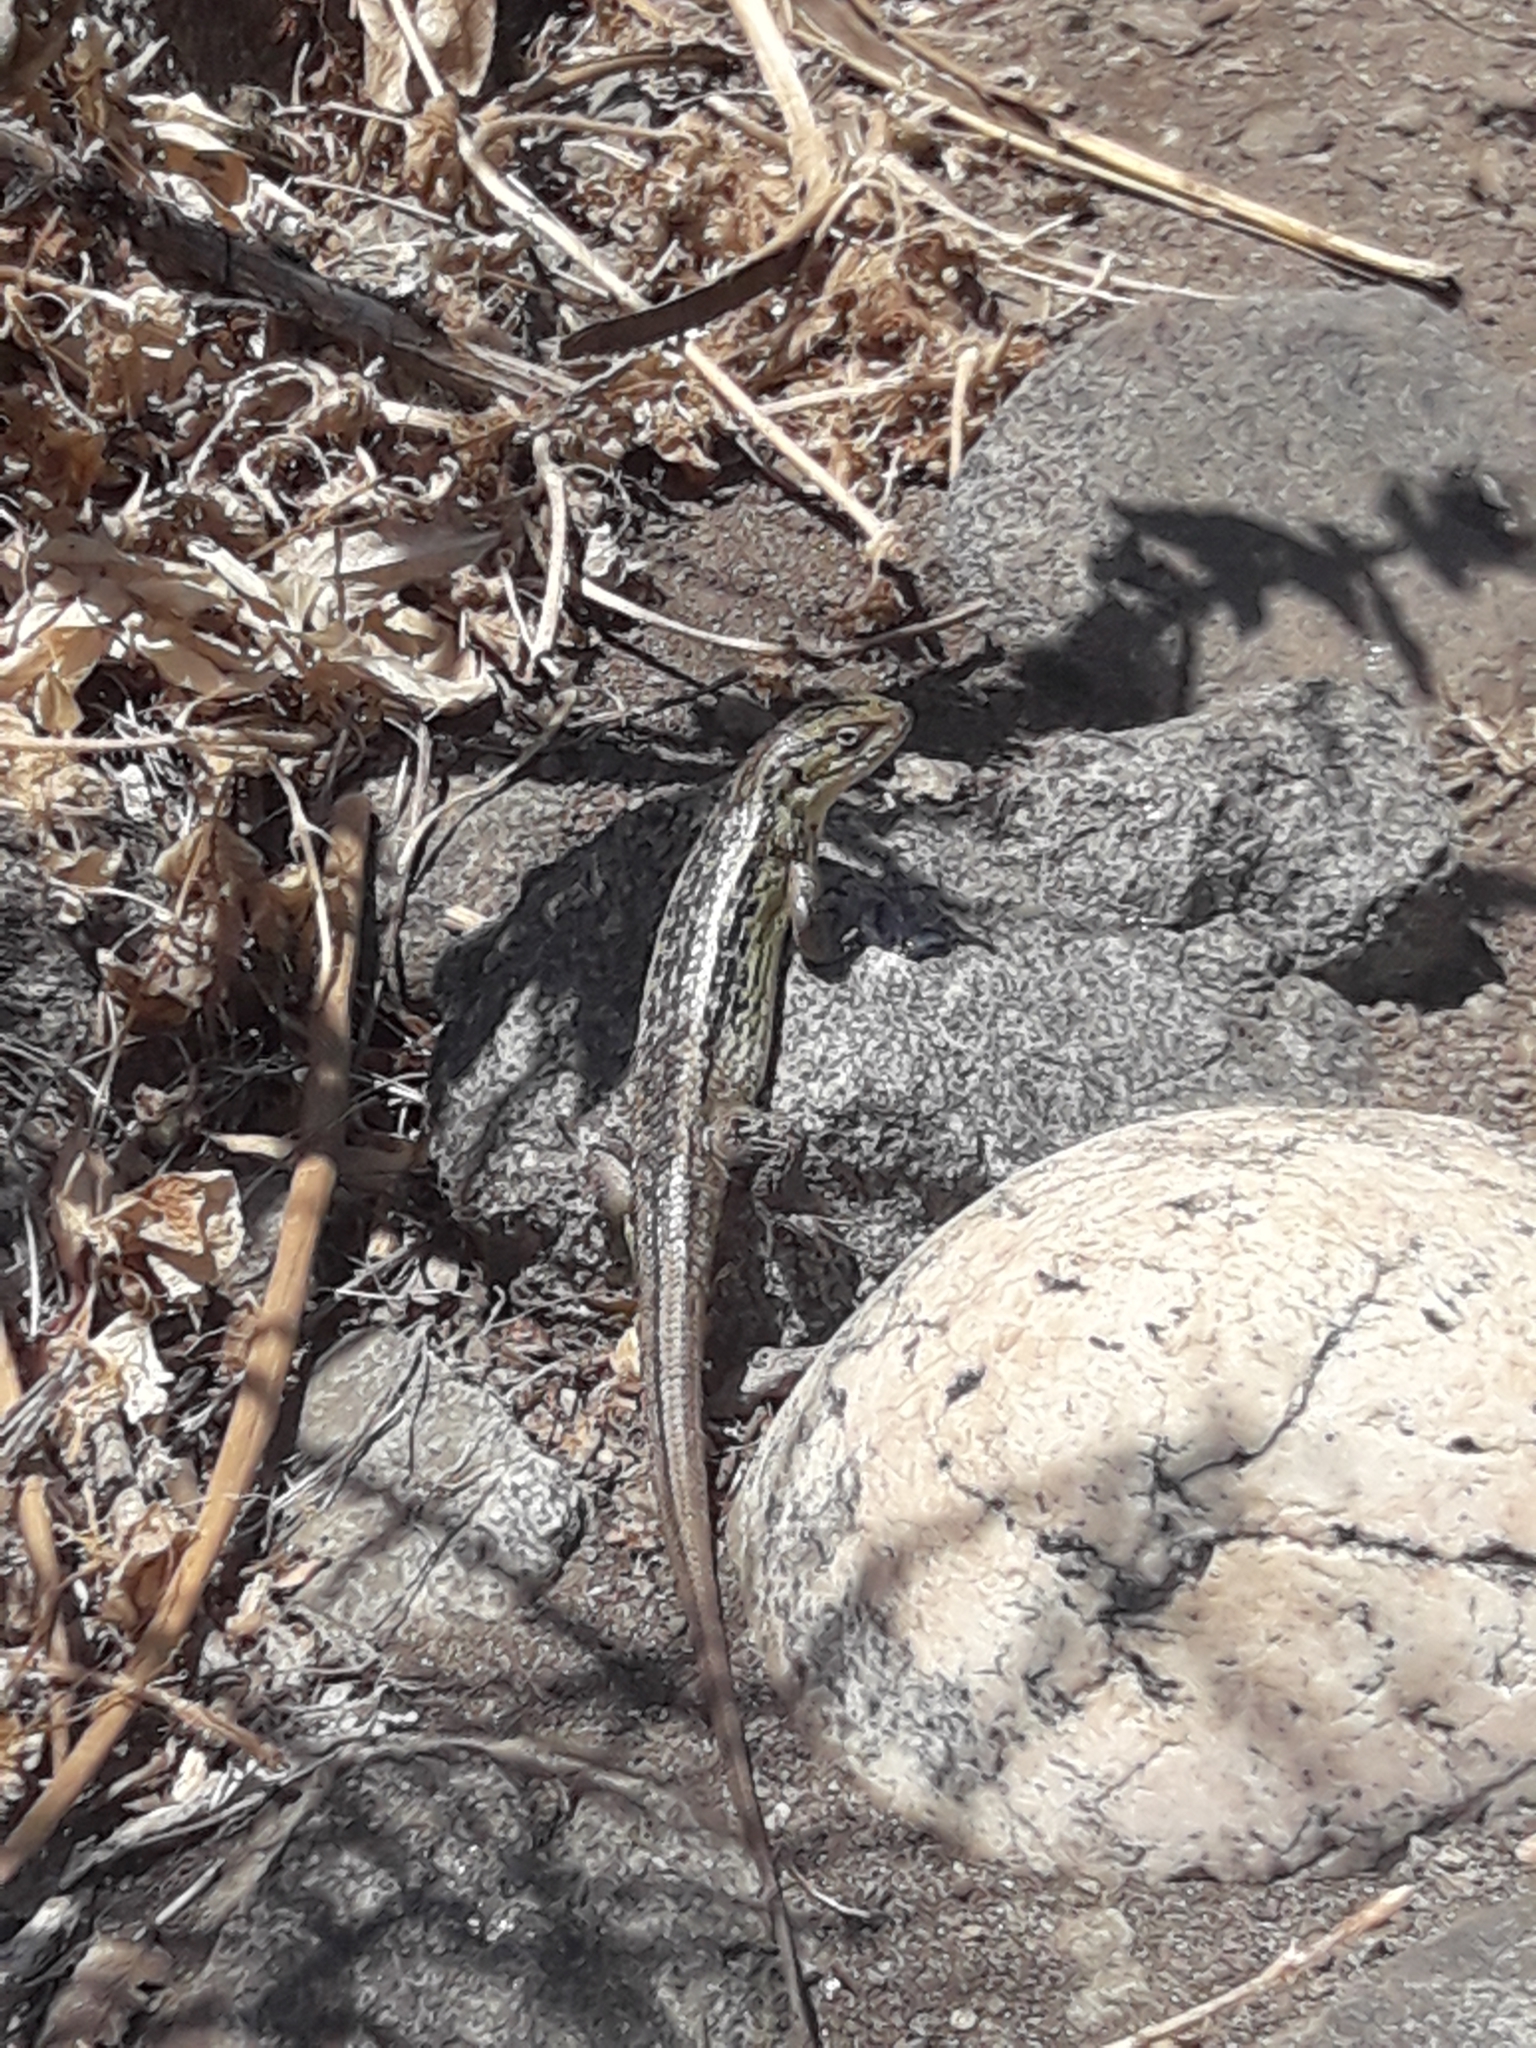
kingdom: Animalia
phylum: Chordata
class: Squamata
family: Liolaemidae
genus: Liolaemus
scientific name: Liolaemus chiliensis
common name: Chilean tree iguana
